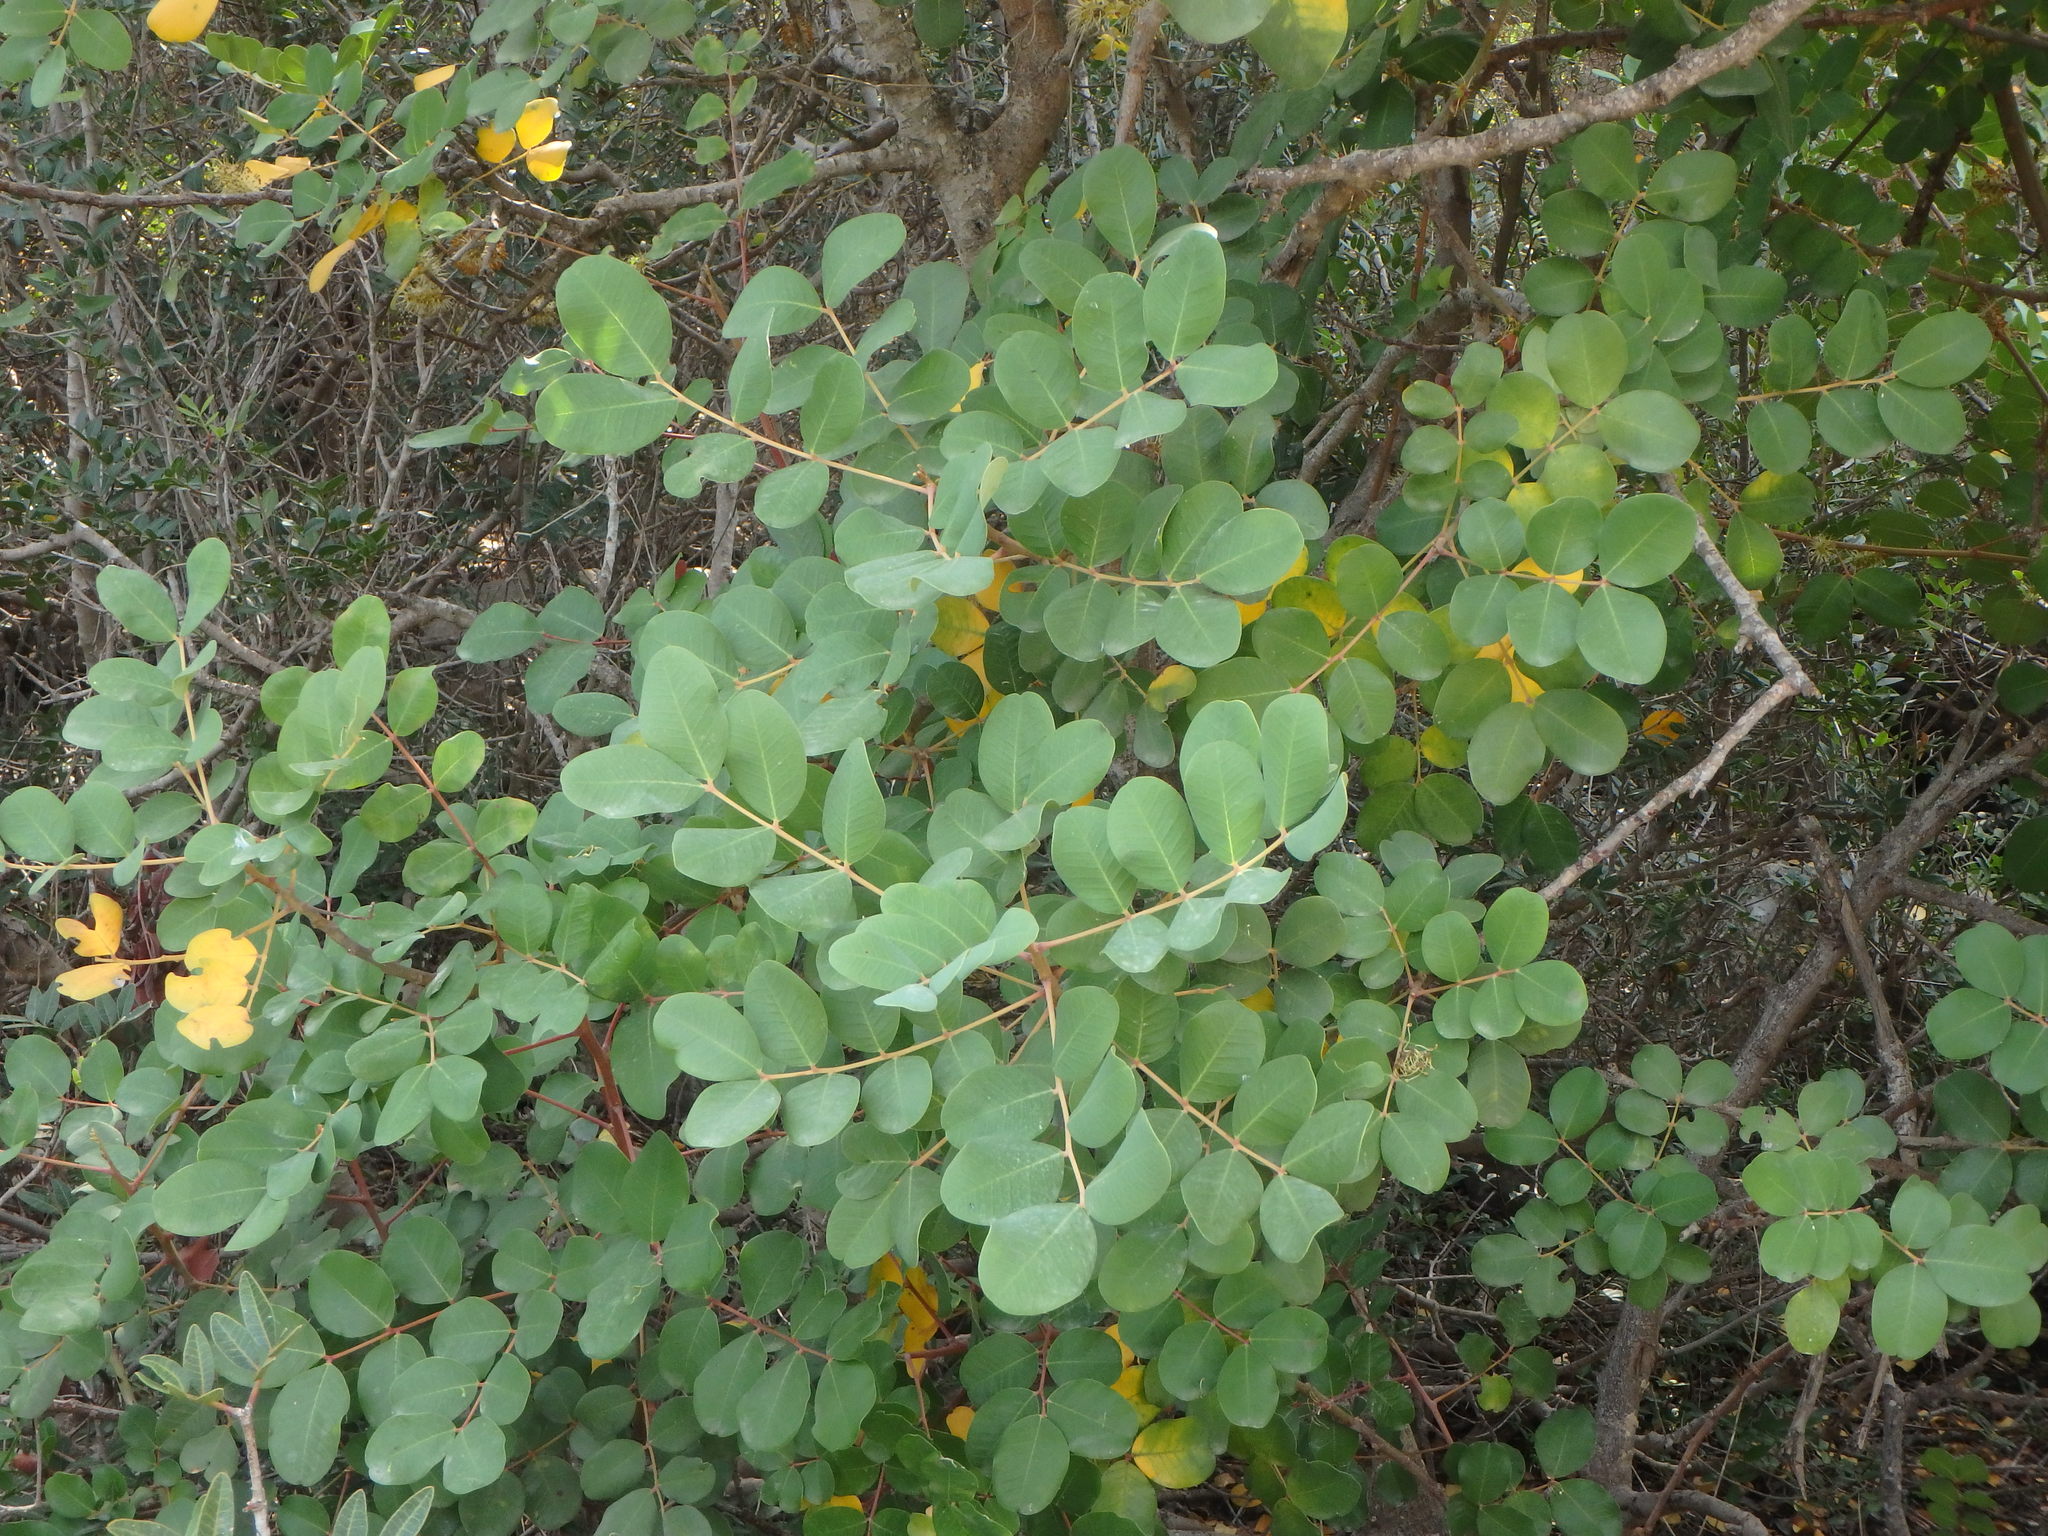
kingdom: Plantae
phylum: Tracheophyta
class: Magnoliopsida
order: Fabales
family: Fabaceae
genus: Ceratonia
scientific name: Ceratonia siliqua
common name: Carob
